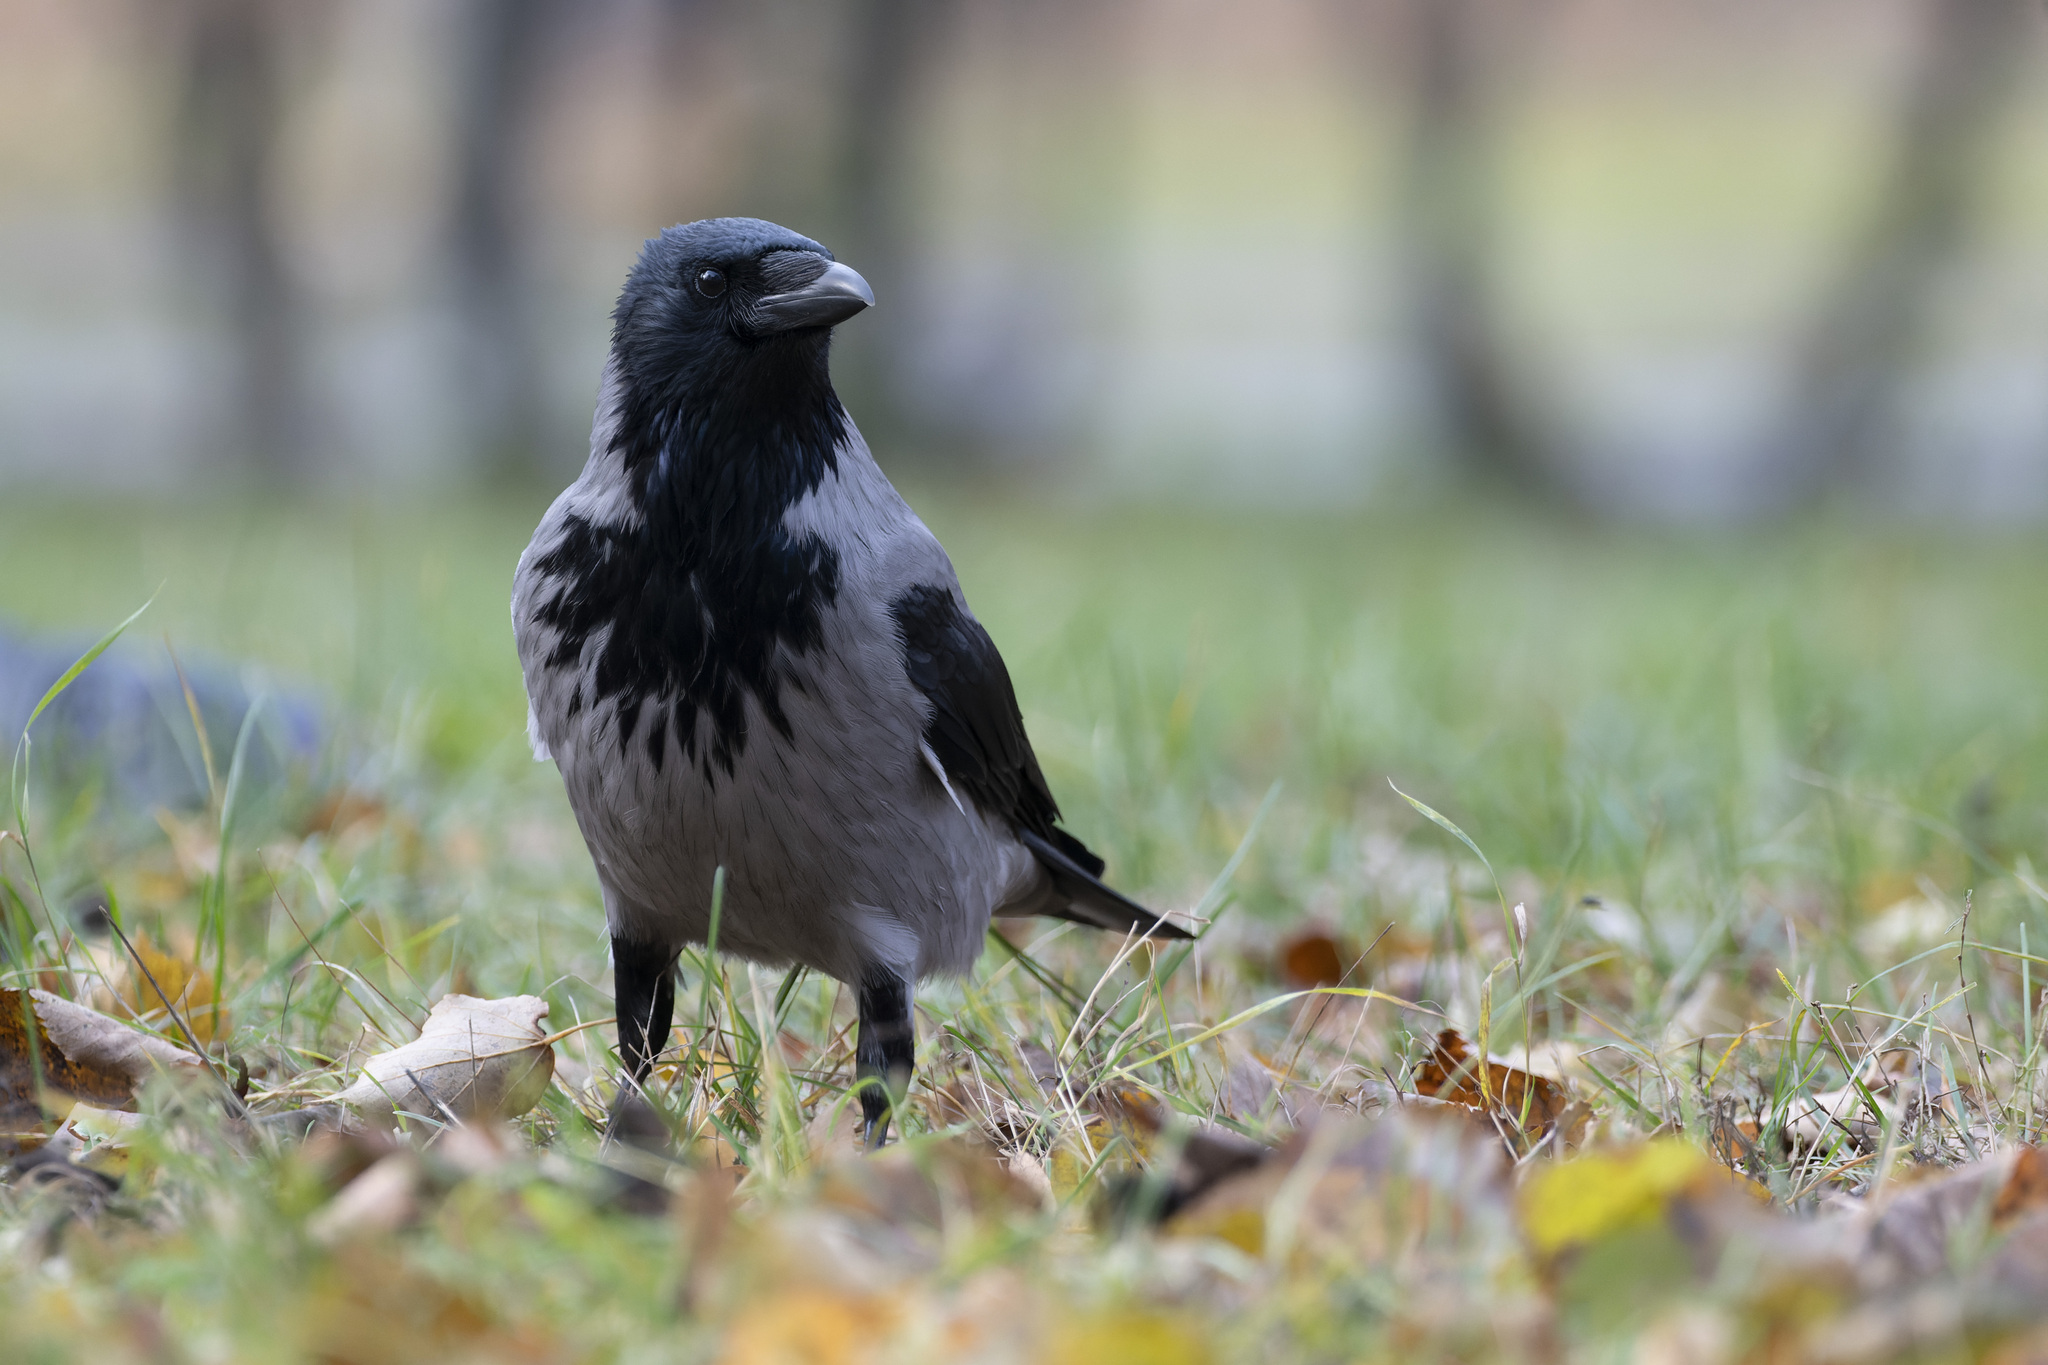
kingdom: Animalia
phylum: Chordata
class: Aves
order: Passeriformes
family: Corvidae
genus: Corvus
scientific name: Corvus cornix
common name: Hooded crow
